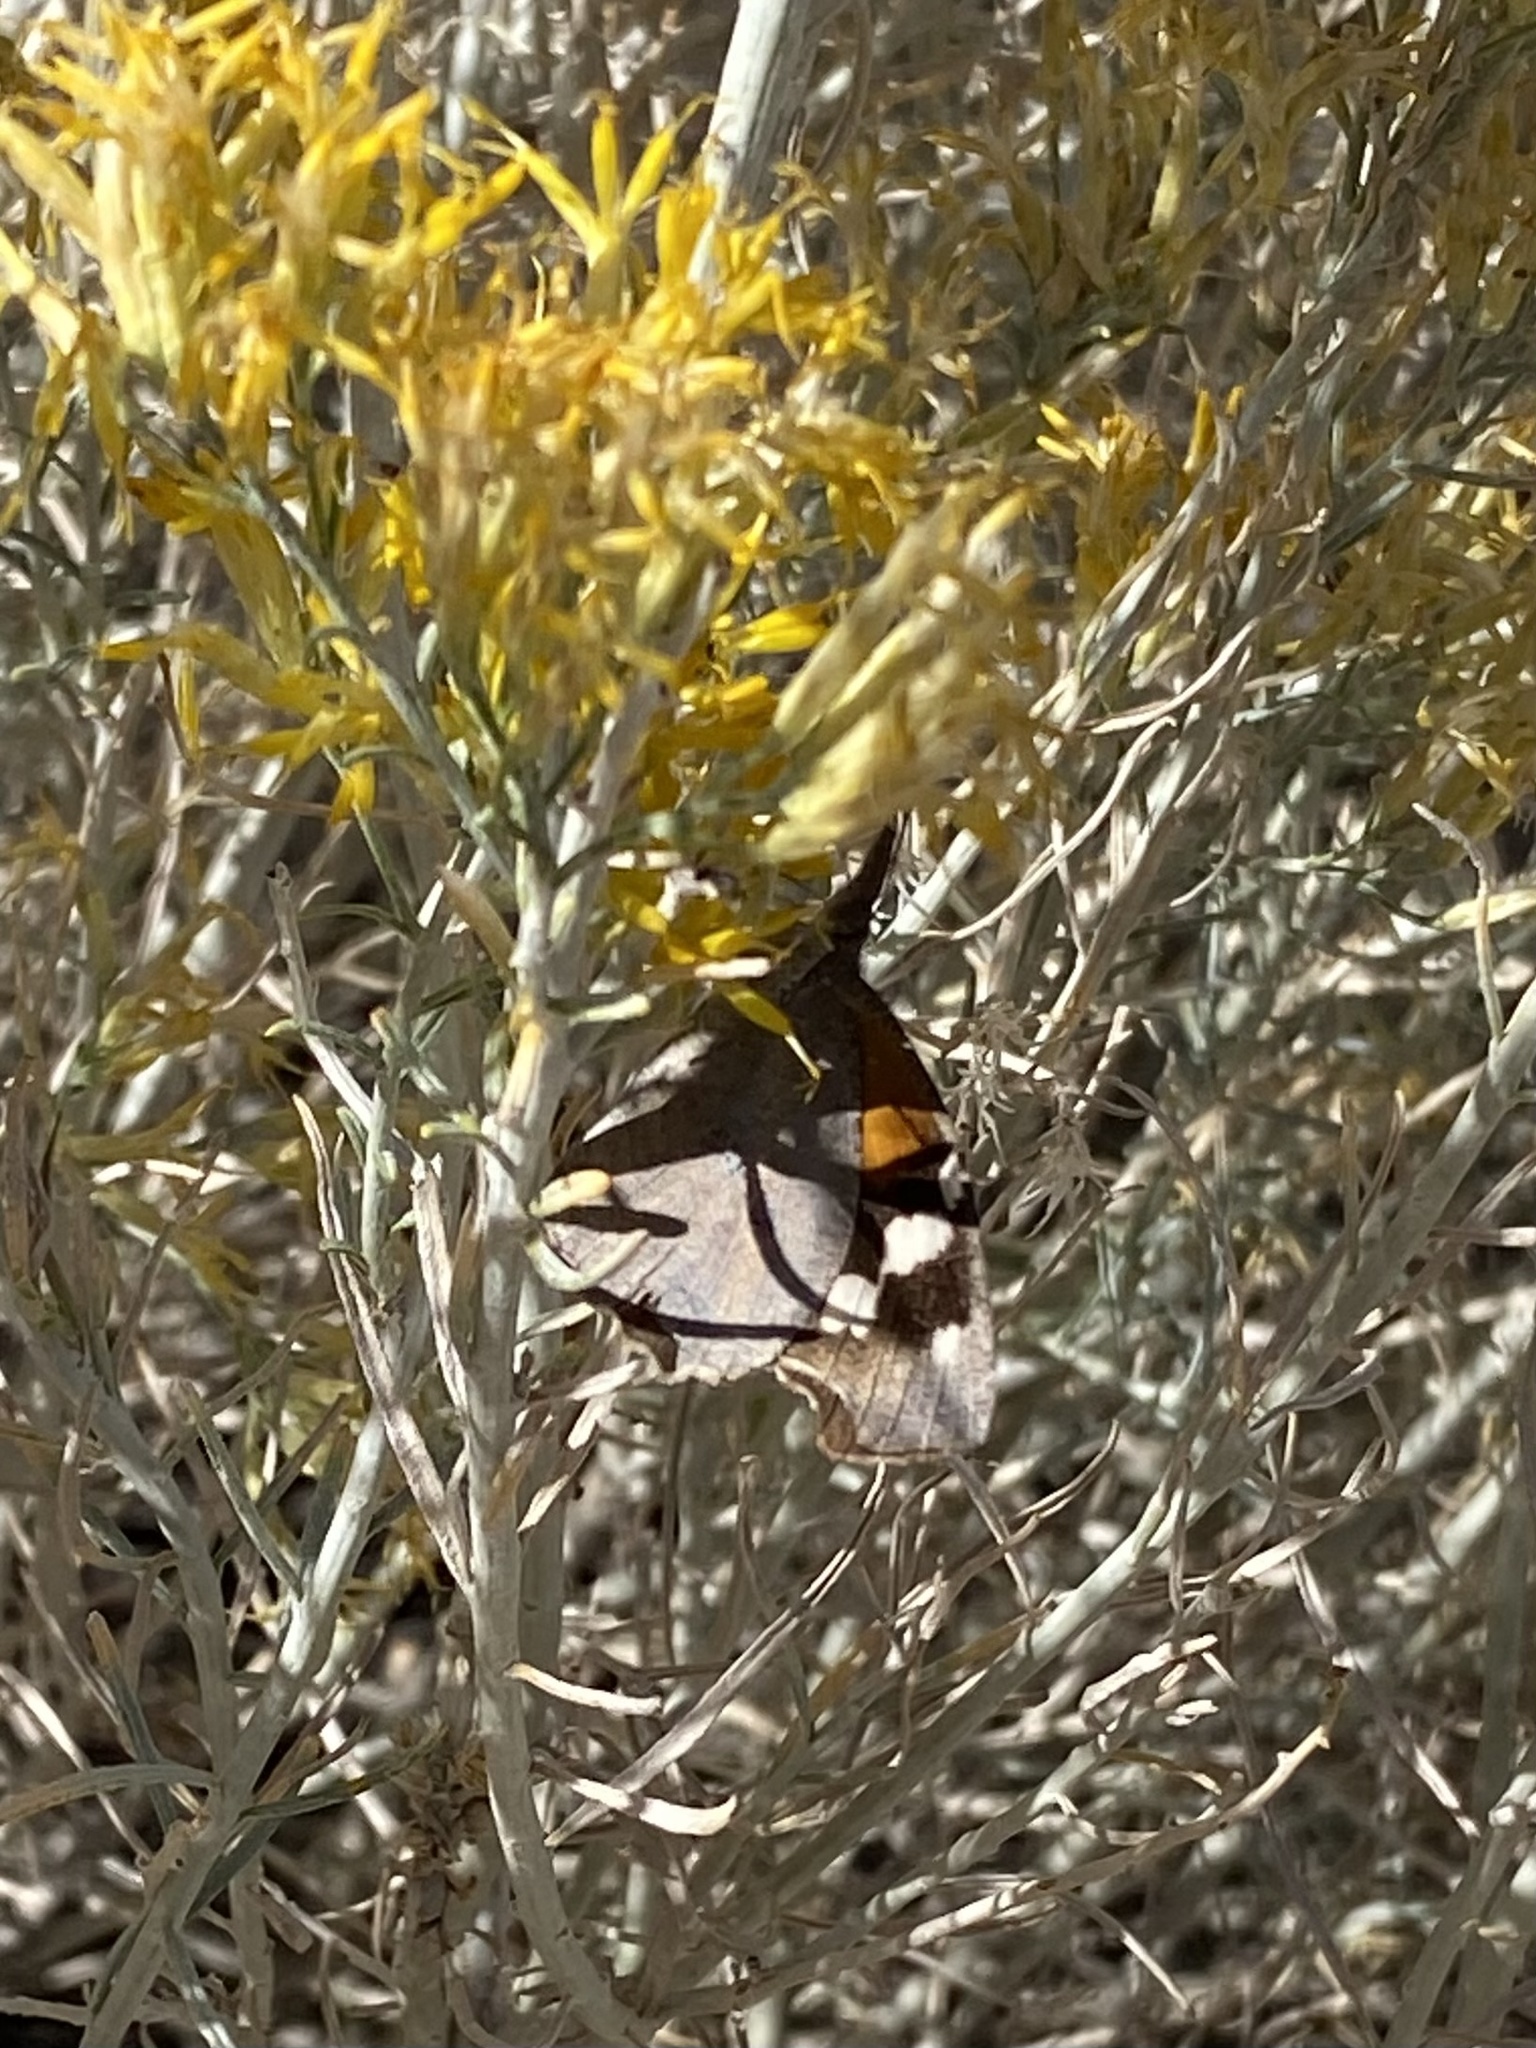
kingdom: Animalia
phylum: Arthropoda
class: Insecta
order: Lepidoptera
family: Nymphalidae
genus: Libytheana
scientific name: Libytheana carinenta
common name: American snout
